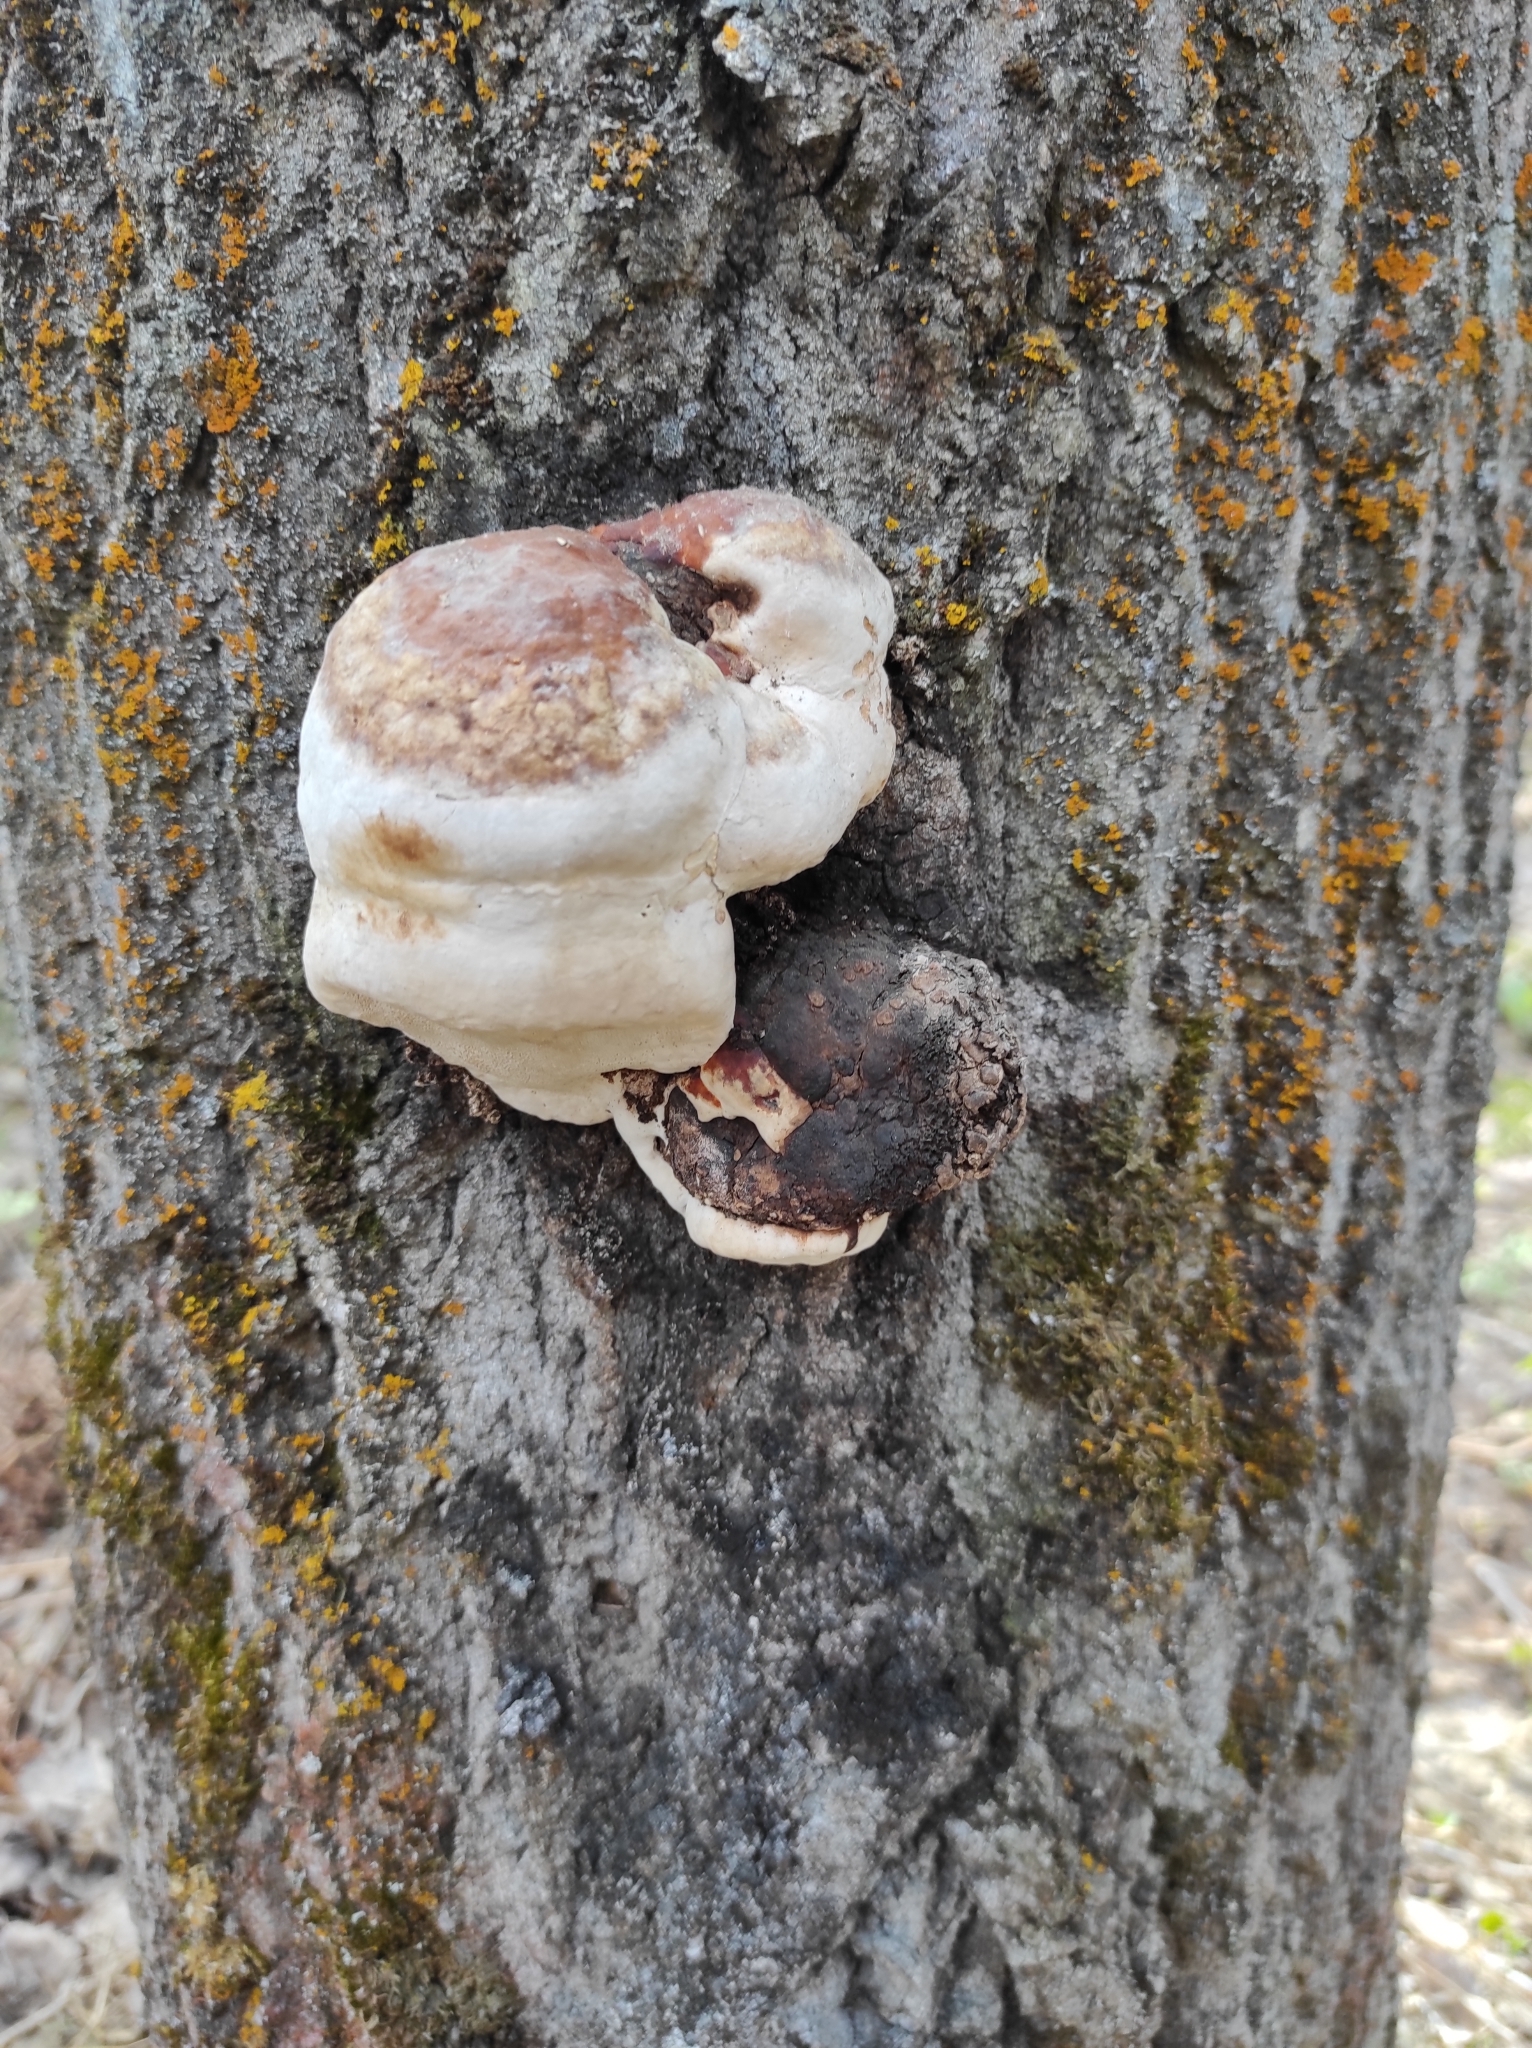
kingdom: Fungi
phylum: Basidiomycota
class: Agaricomycetes
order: Polyporales
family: Fomitopsidaceae
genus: Fomitopsis
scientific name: Fomitopsis pinicola
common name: Red-belted bracket
